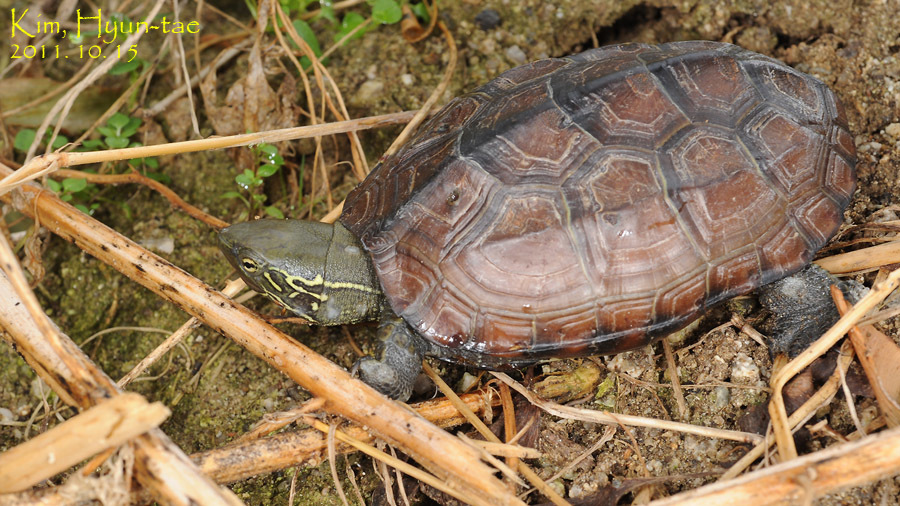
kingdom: Animalia
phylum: Chordata
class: Testudines
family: Geoemydidae
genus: Mauremys
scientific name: Mauremys reevesii
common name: Chinese pond turtle
